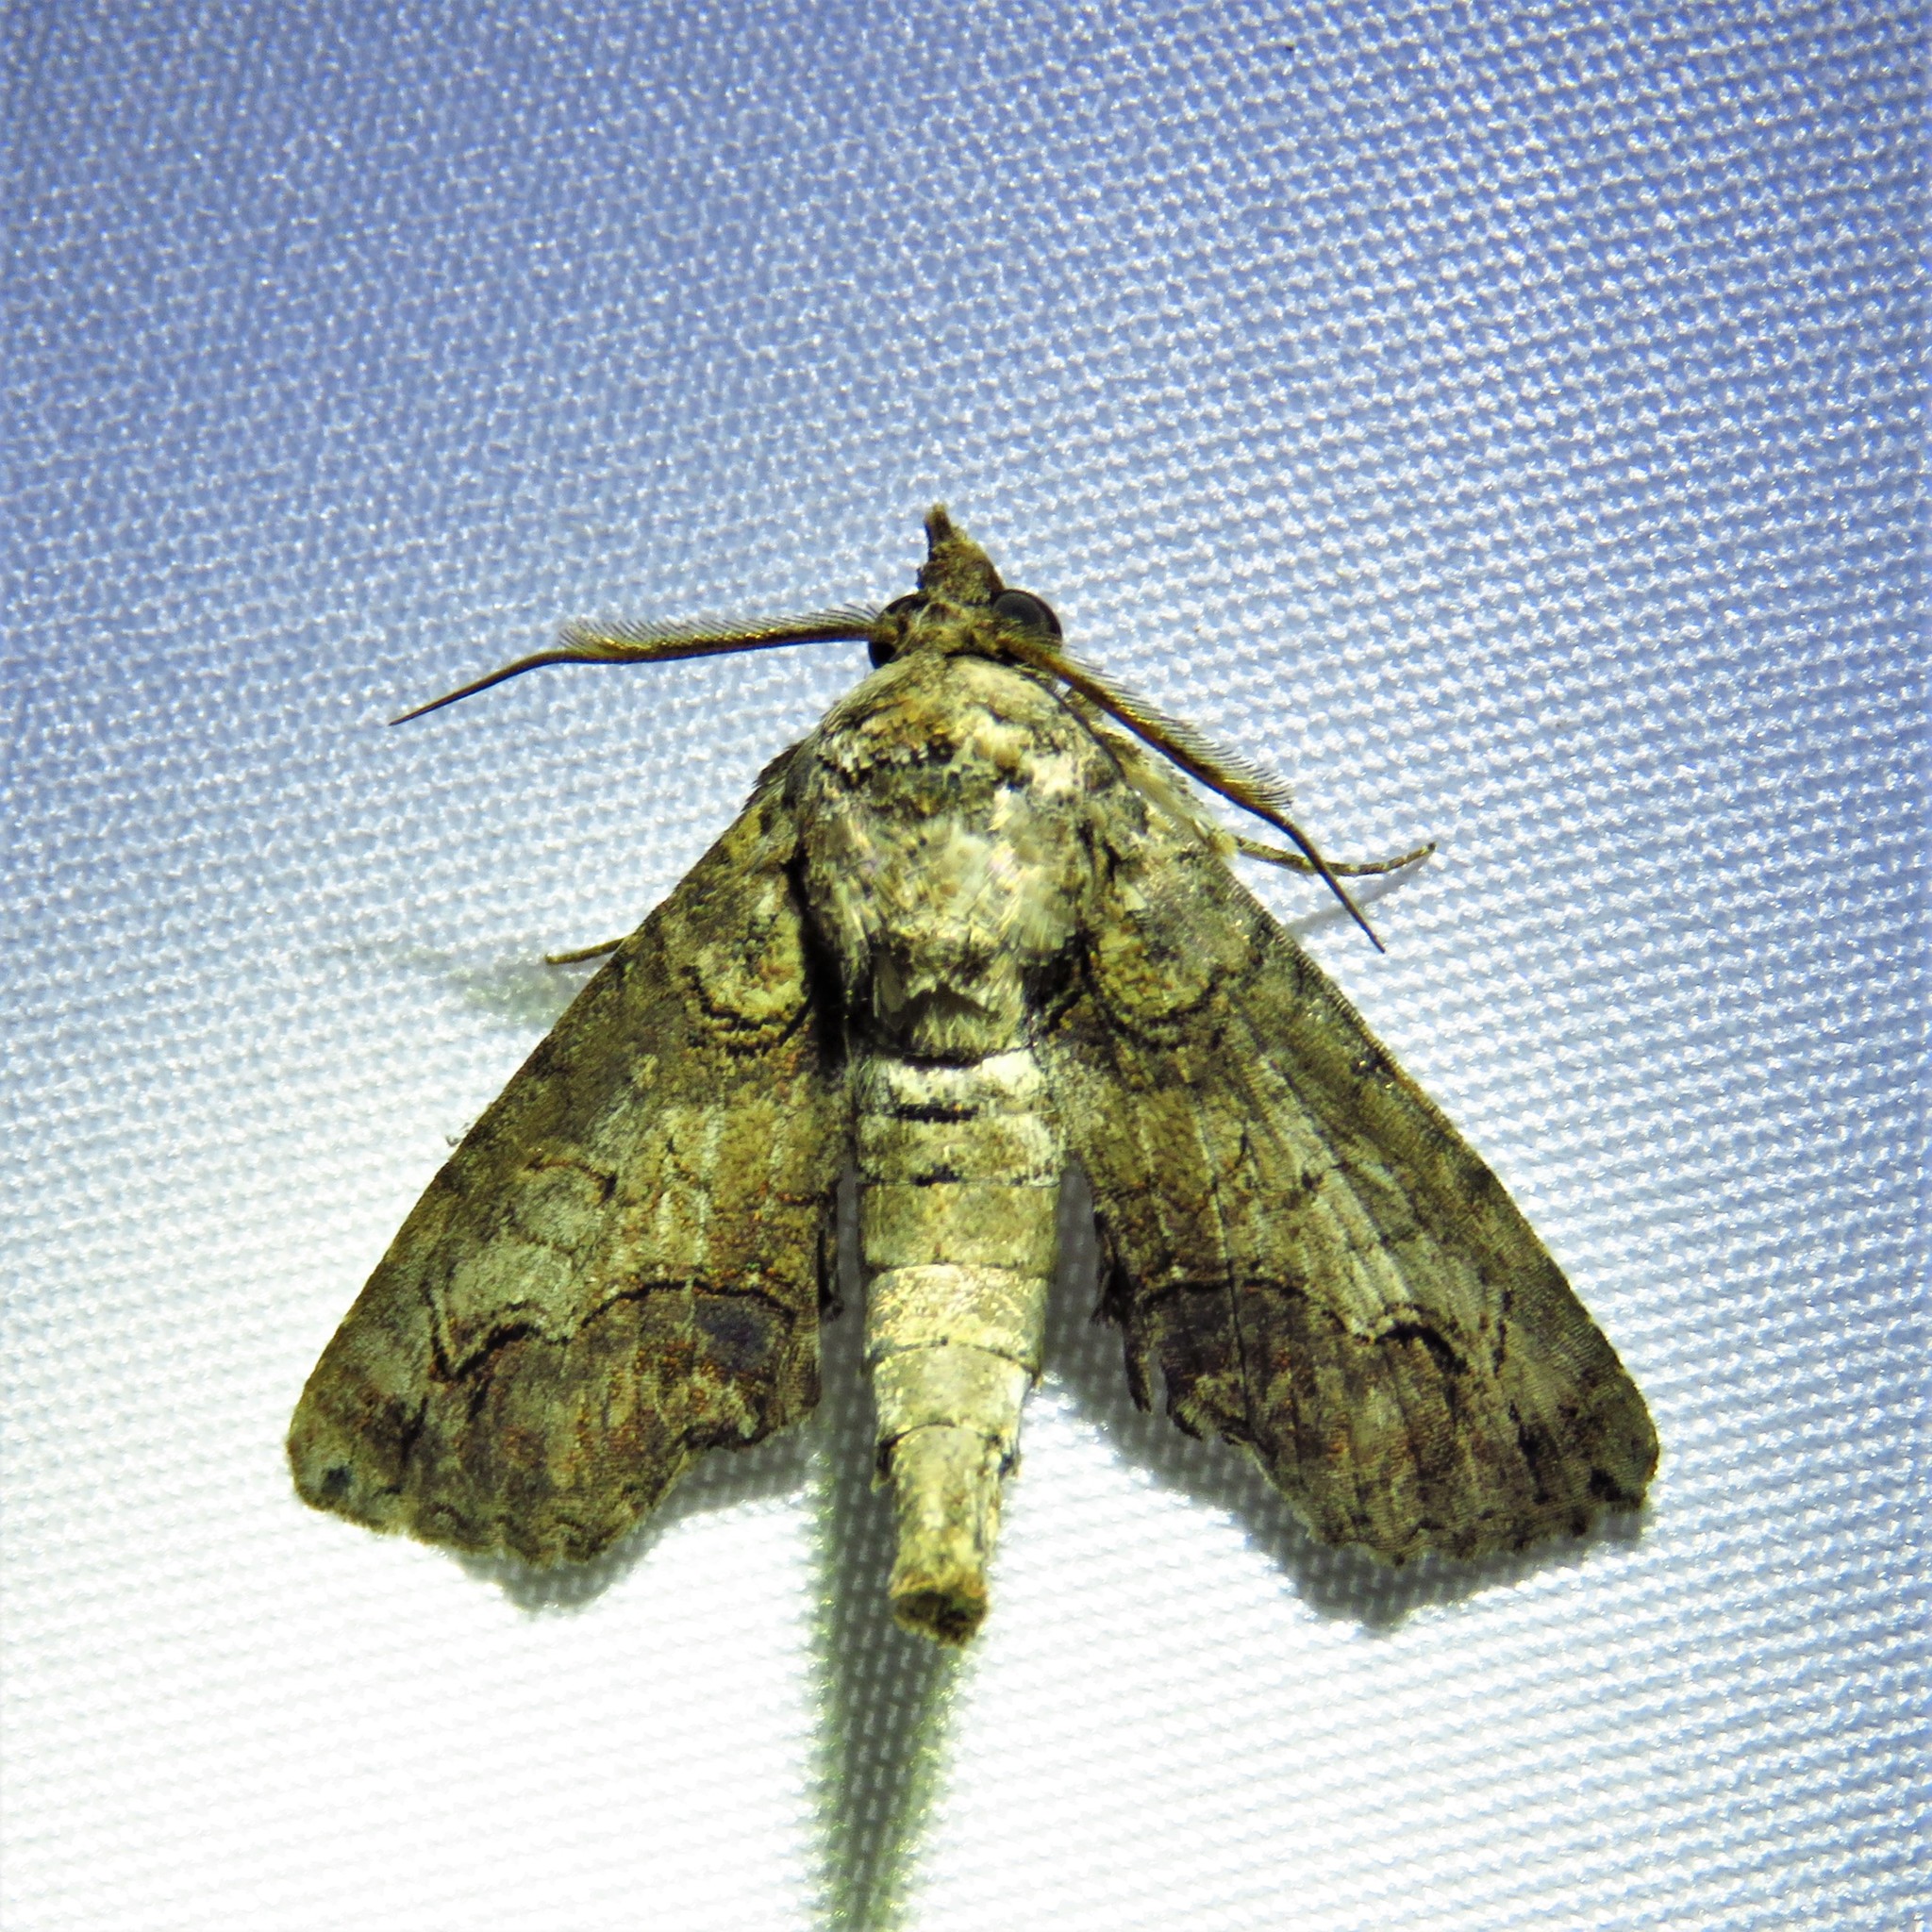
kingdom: Animalia
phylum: Arthropoda
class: Insecta
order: Lepidoptera
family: Euteliidae
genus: Paectes
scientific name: Paectes abrostoloides
